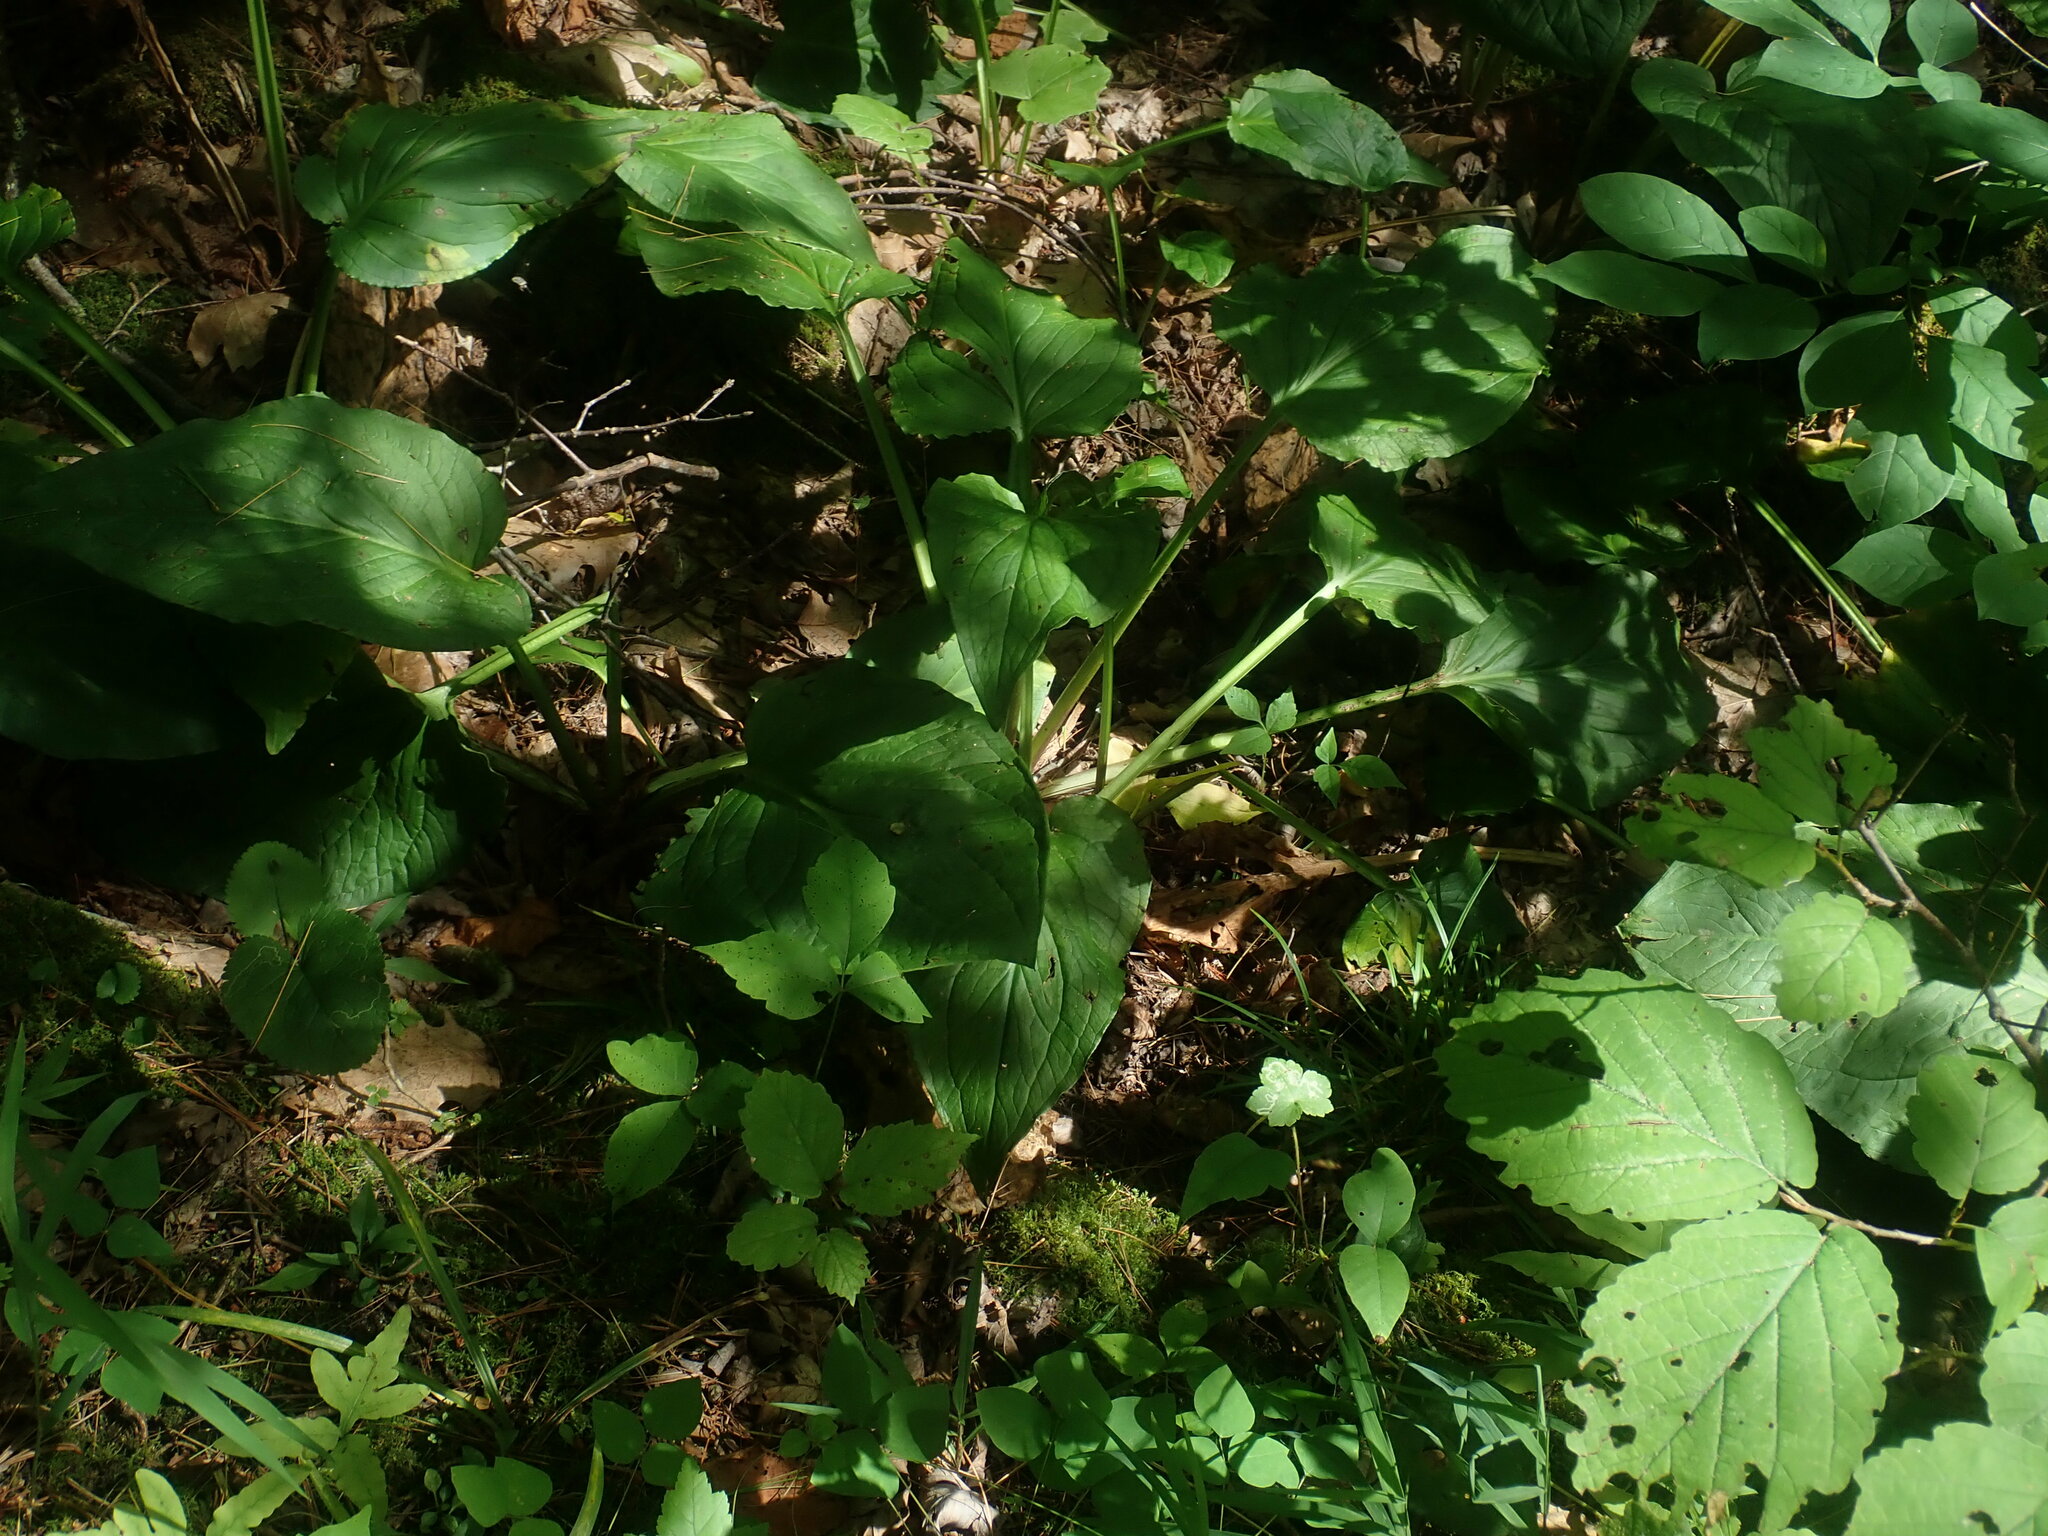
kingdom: Plantae
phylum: Tracheophyta
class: Liliopsida
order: Alismatales
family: Araceae
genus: Symplocarpus
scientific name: Symplocarpus foetidus
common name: Eastern skunk cabbage
